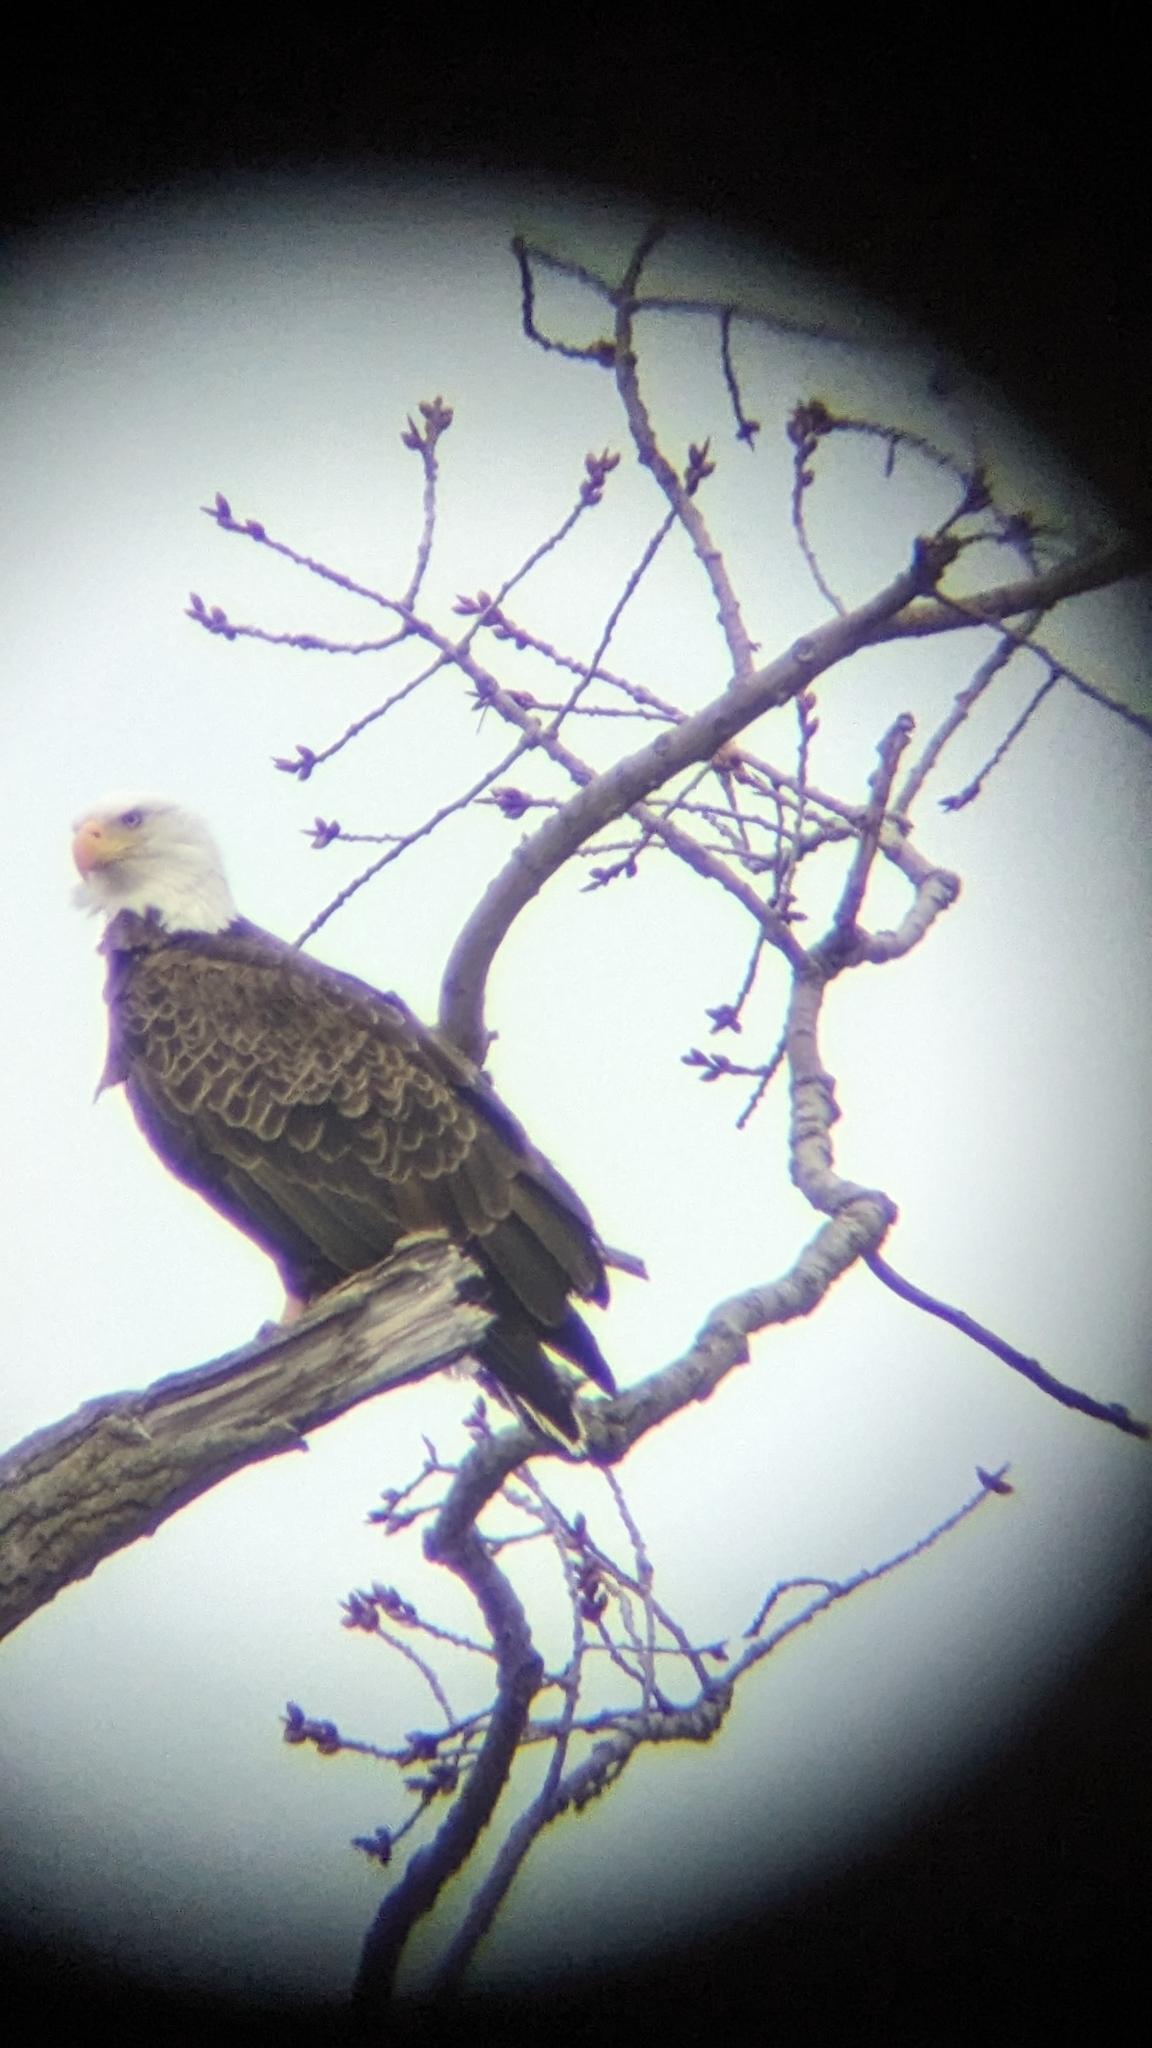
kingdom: Animalia
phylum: Chordata
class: Aves
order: Accipitriformes
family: Accipitridae
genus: Haliaeetus
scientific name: Haliaeetus leucocephalus
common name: Bald eagle
